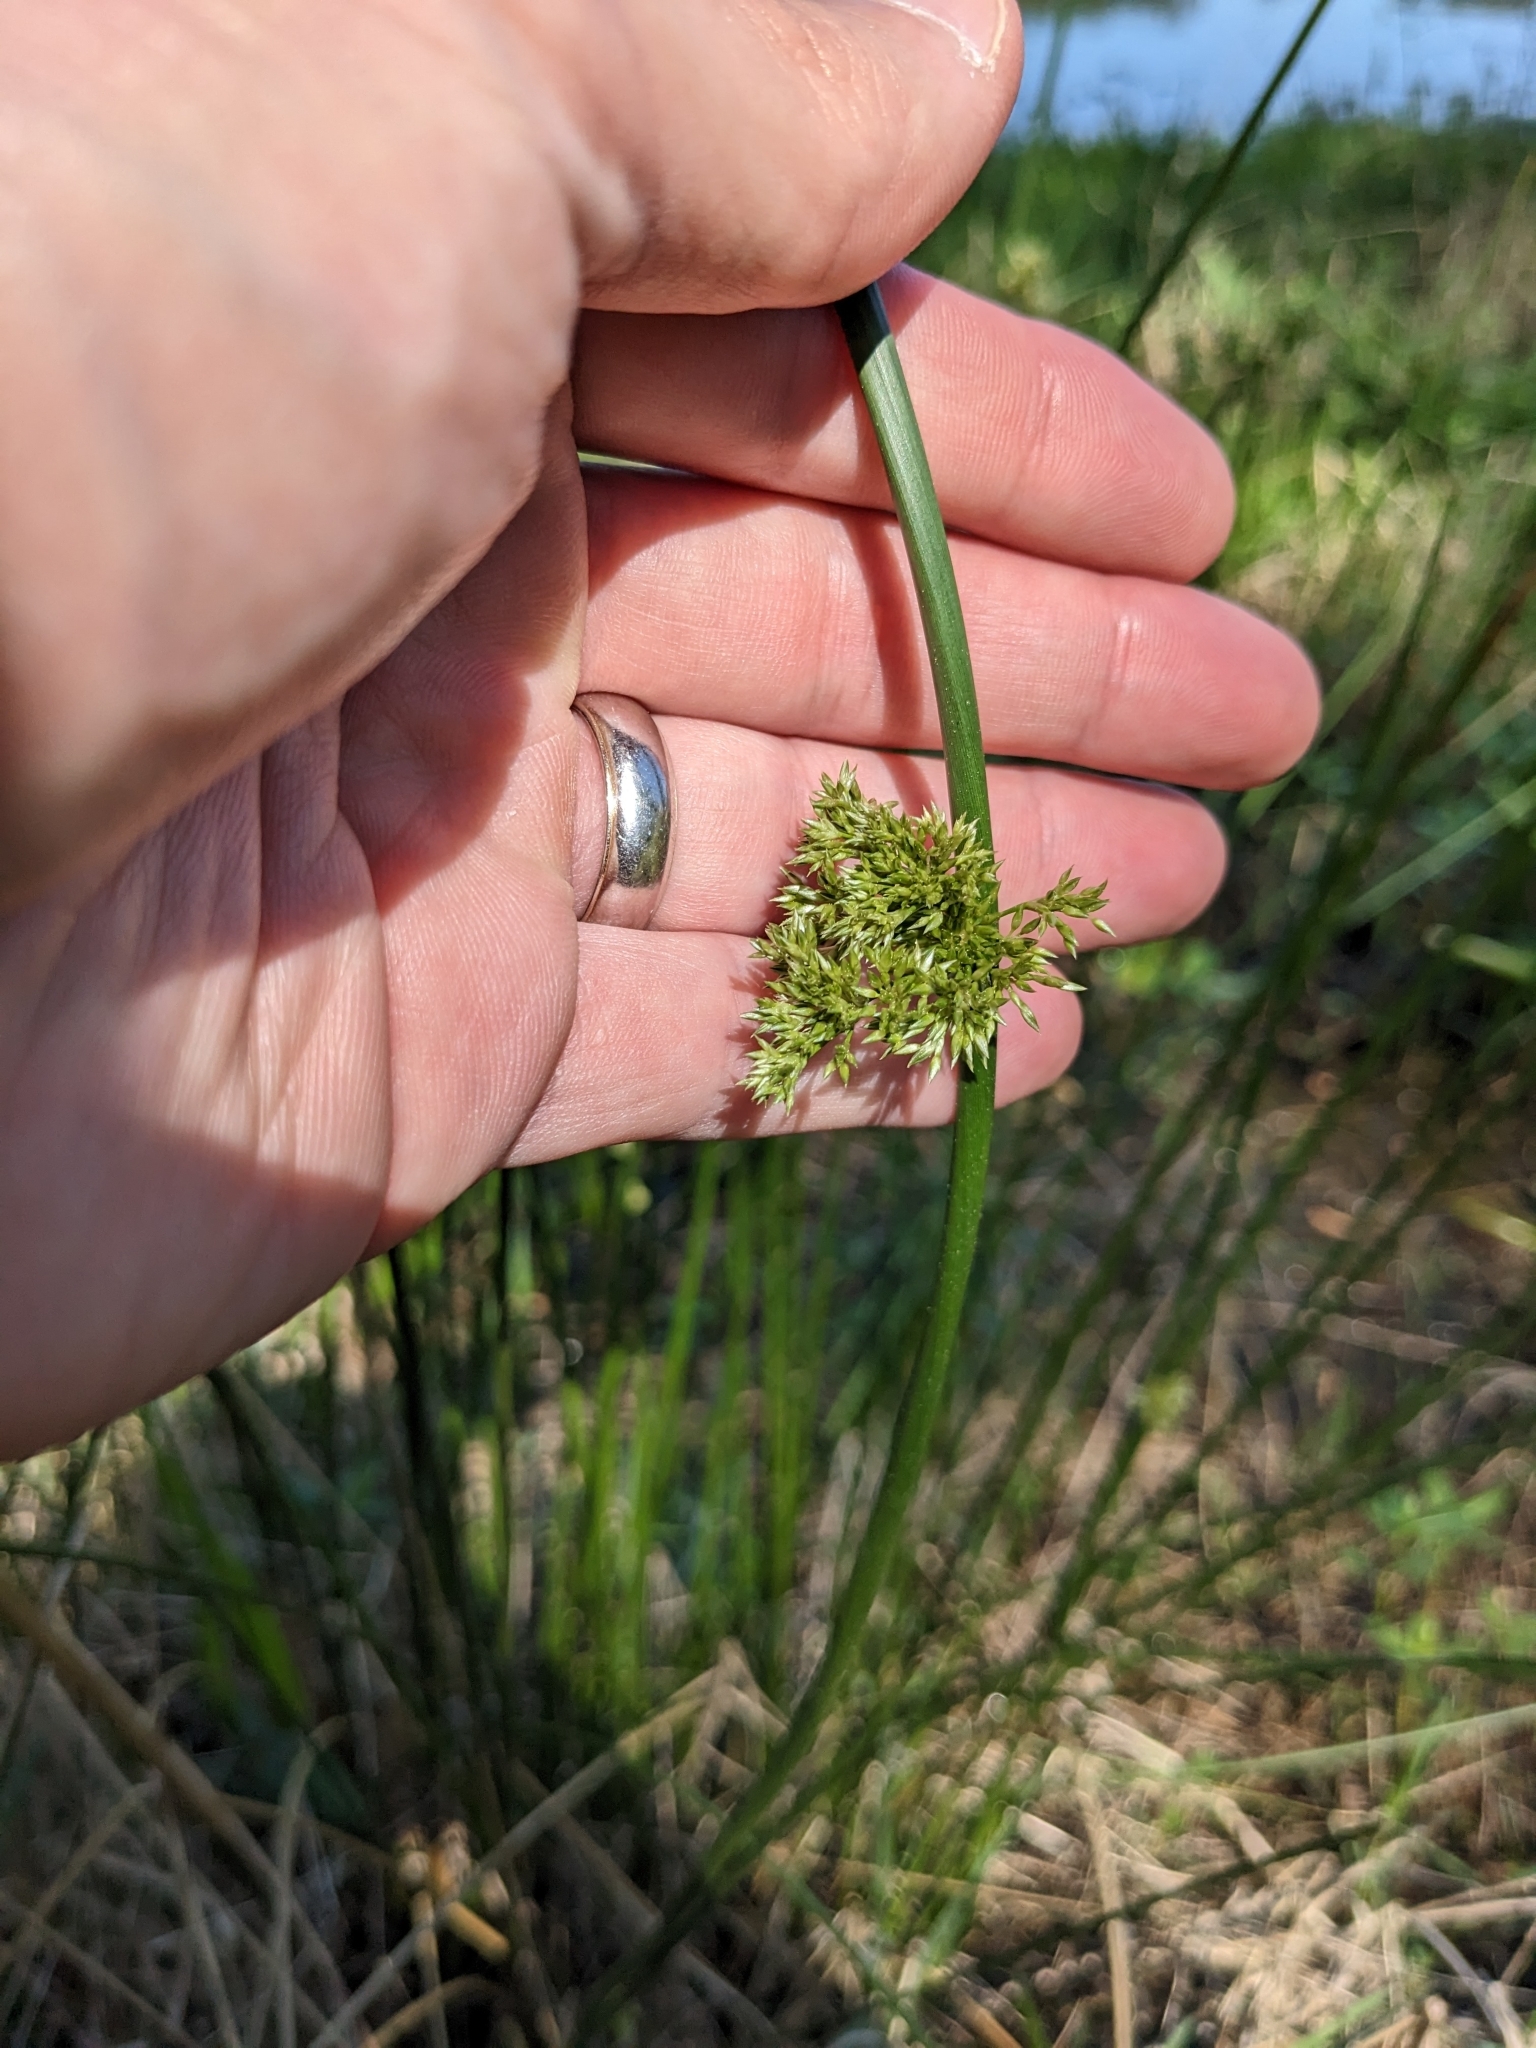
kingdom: Plantae
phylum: Tracheophyta
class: Liliopsida
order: Poales
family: Juncaceae
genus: Juncus
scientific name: Juncus effusus
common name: Soft rush
